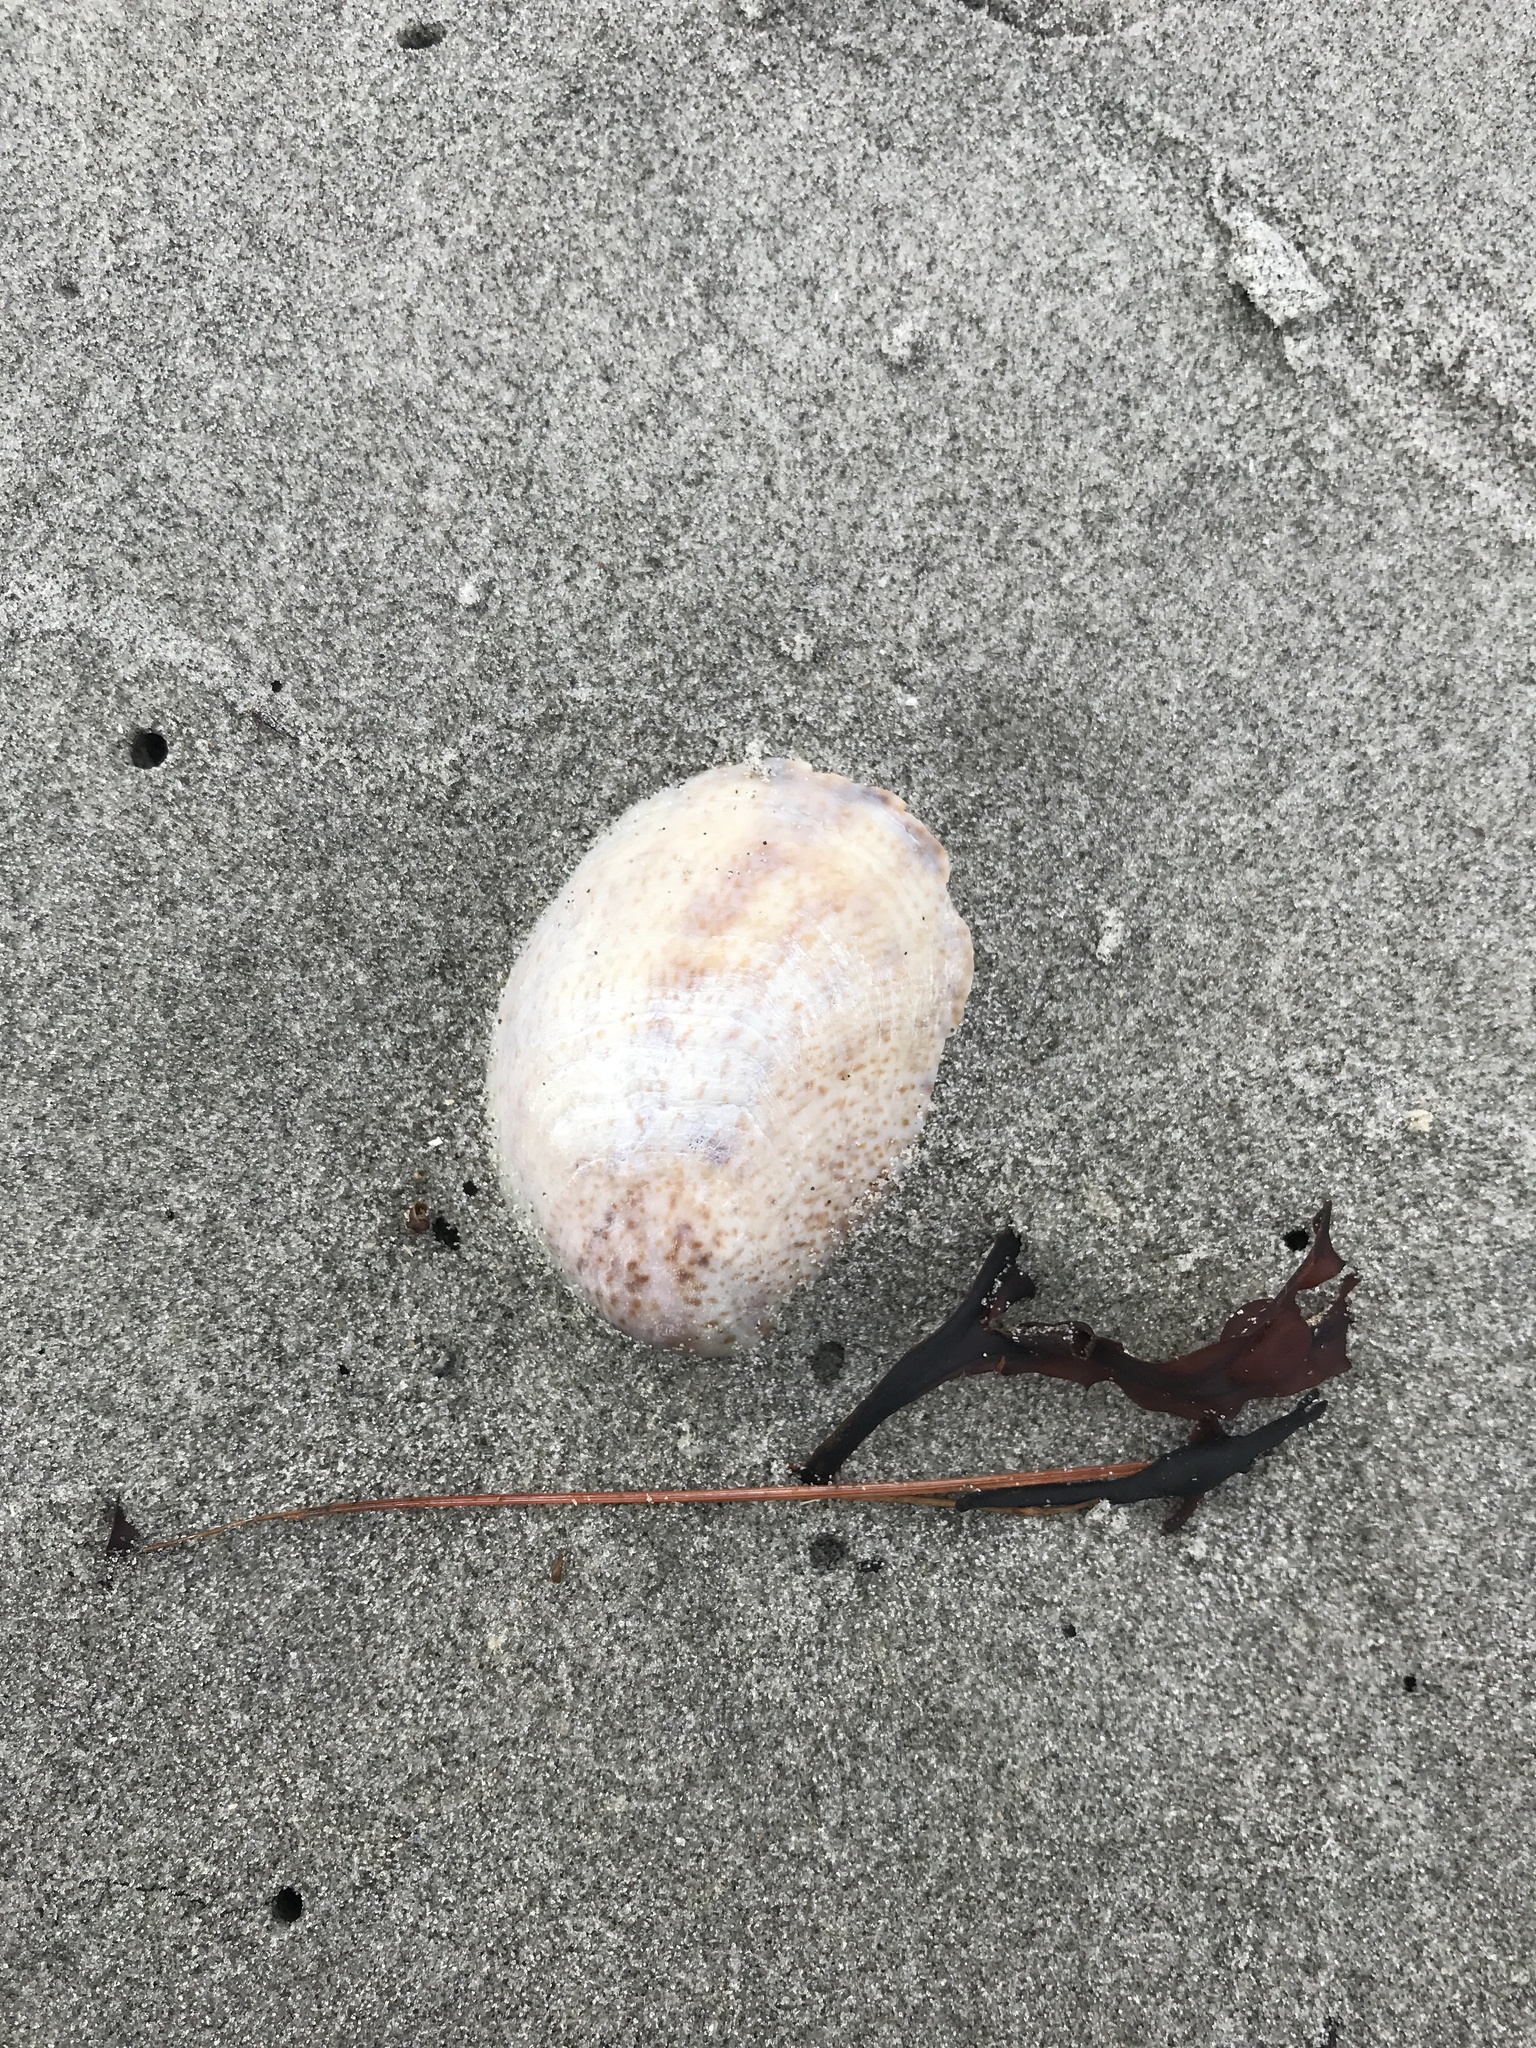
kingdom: Animalia
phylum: Mollusca
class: Gastropoda
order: Littorinimorpha
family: Calyptraeidae
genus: Crepidula
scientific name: Crepidula fornicata
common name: Slipper limpet
